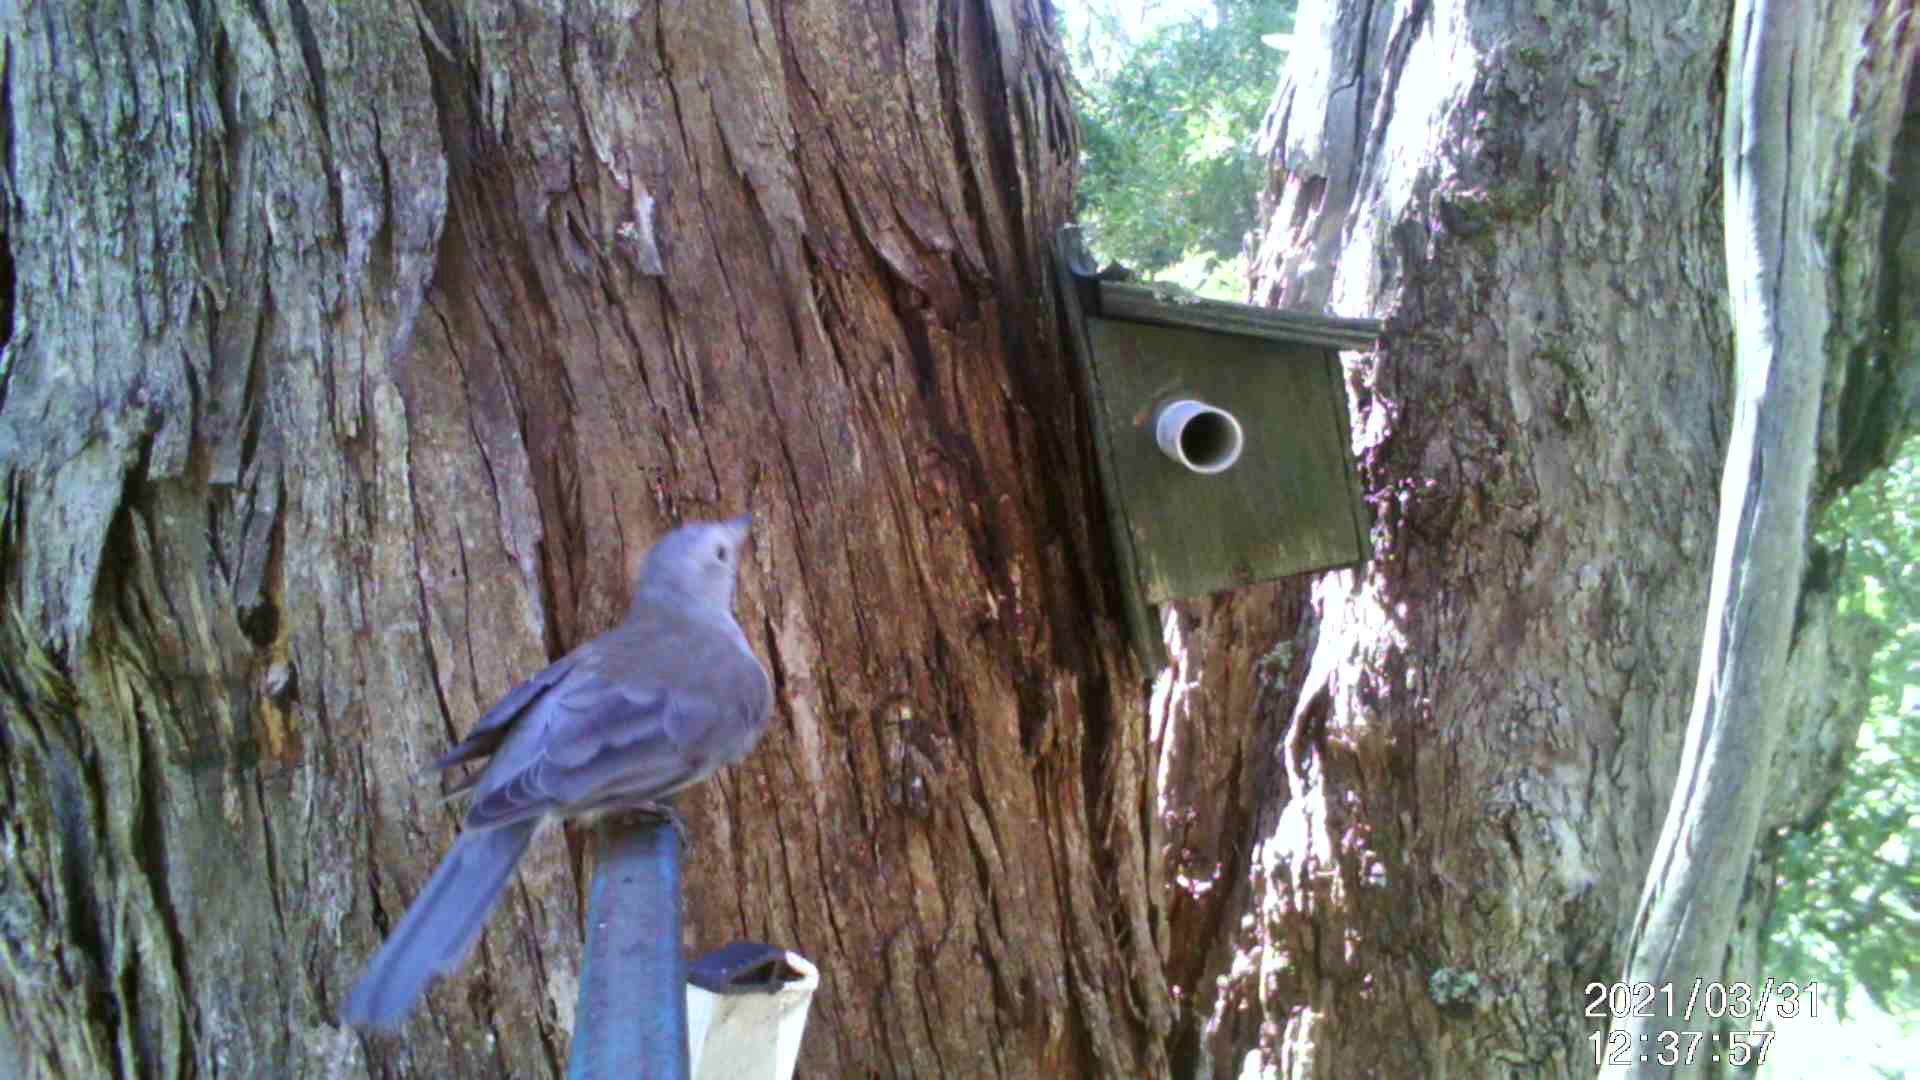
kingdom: Animalia
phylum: Chordata
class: Aves
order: Passeriformes
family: Pachycephalidae
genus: Colluricincla
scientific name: Colluricincla harmonica
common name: Grey shrikethrush
